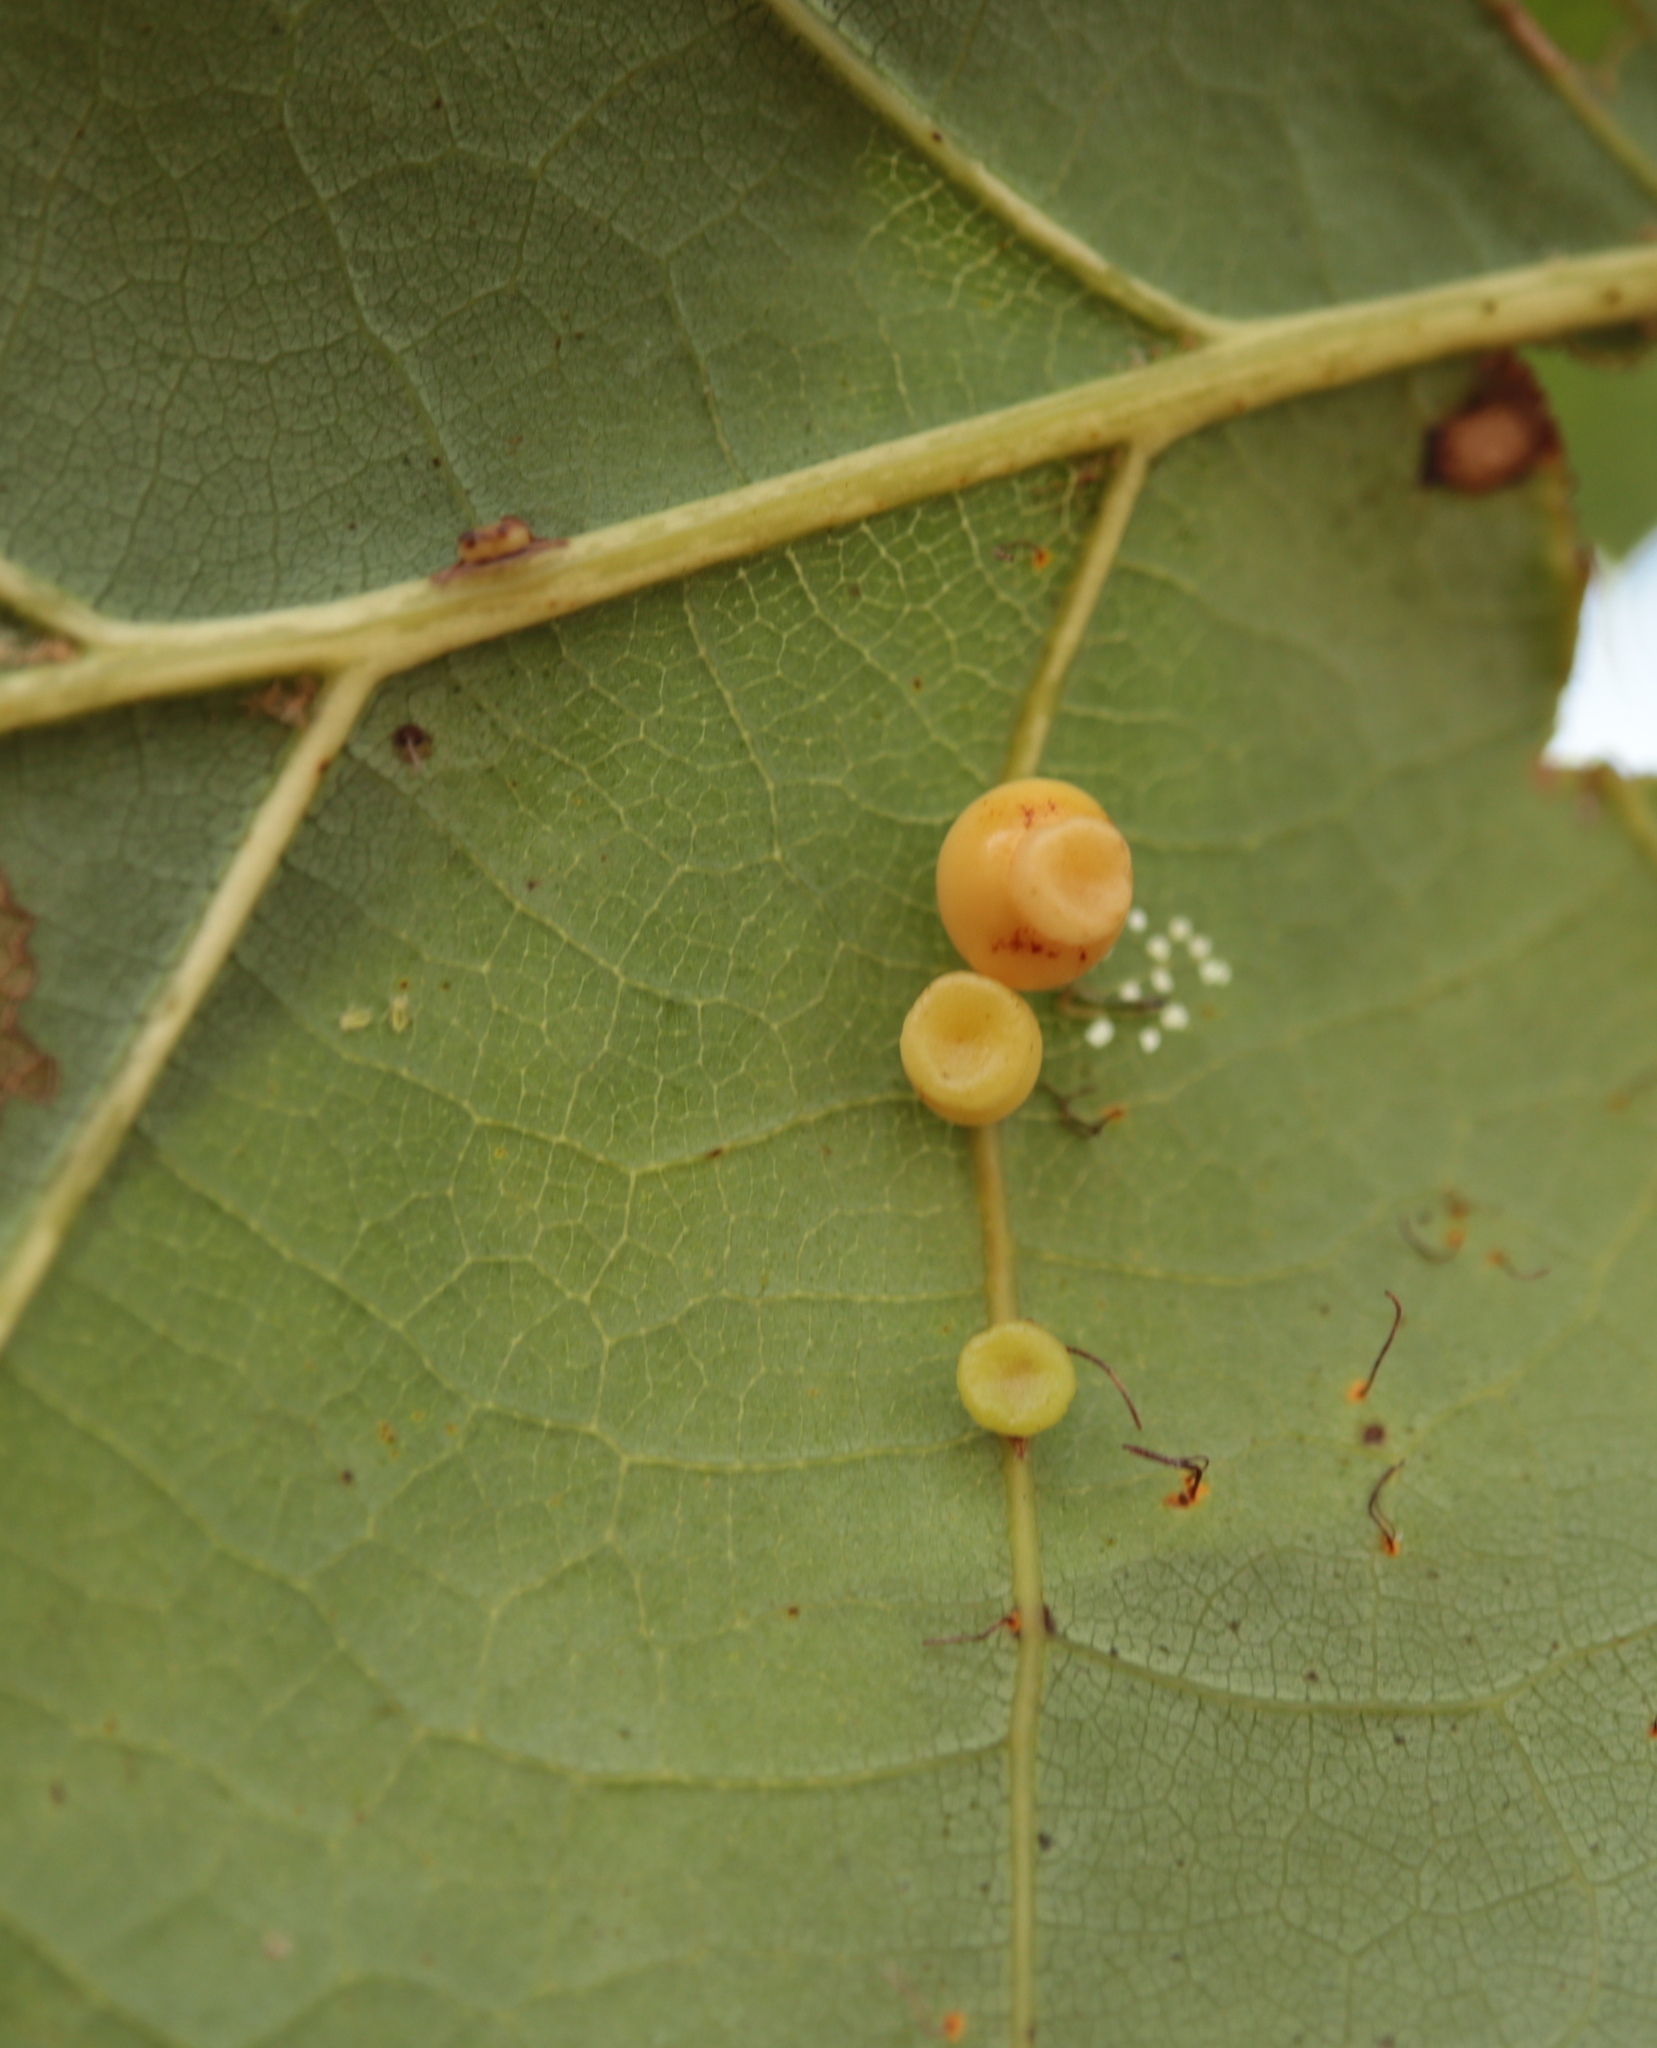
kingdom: Animalia
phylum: Arthropoda
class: Insecta
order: Hymenoptera
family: Cynipidae
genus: Kokkocynips
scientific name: Kokkocynips rileyi
